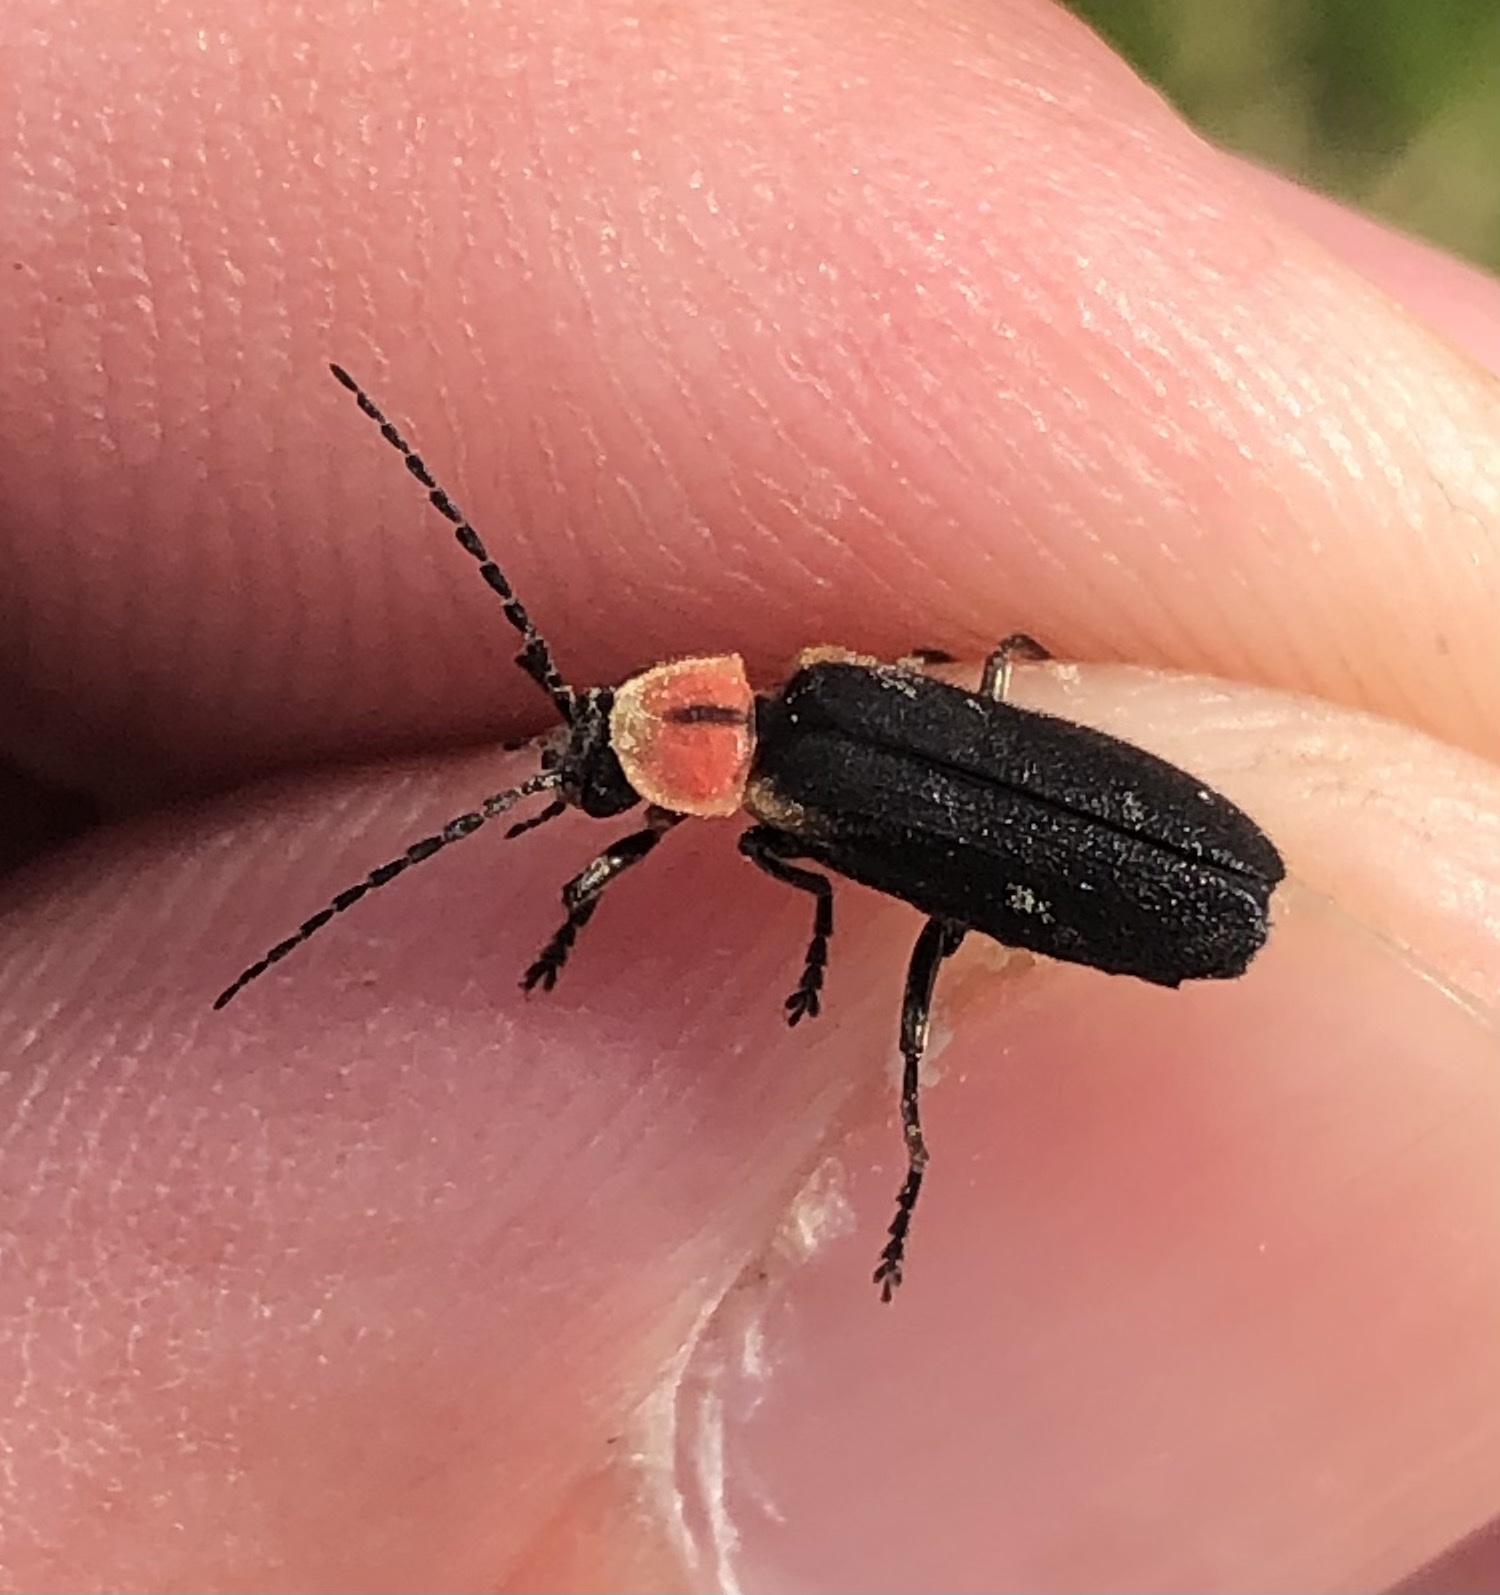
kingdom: Animalia
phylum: Arthropoda
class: Insecta
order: Coleoptera
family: Cantharidae
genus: Discodon
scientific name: Discodon planicolle
